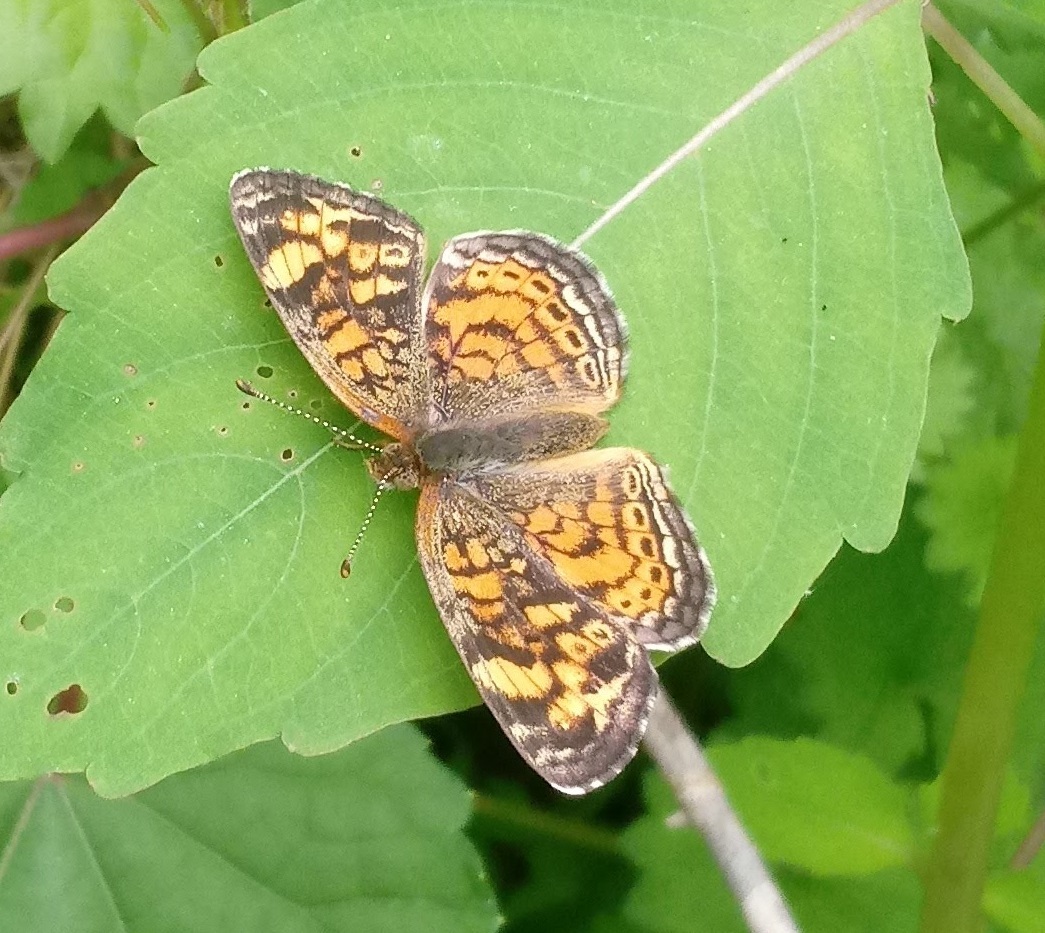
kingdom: Animalia
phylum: Arthropoda
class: Insecta
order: Lepidoptera
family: Nymphalidae
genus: Phyciodes
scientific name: Phyciodes tharos
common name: Pearl crescent
